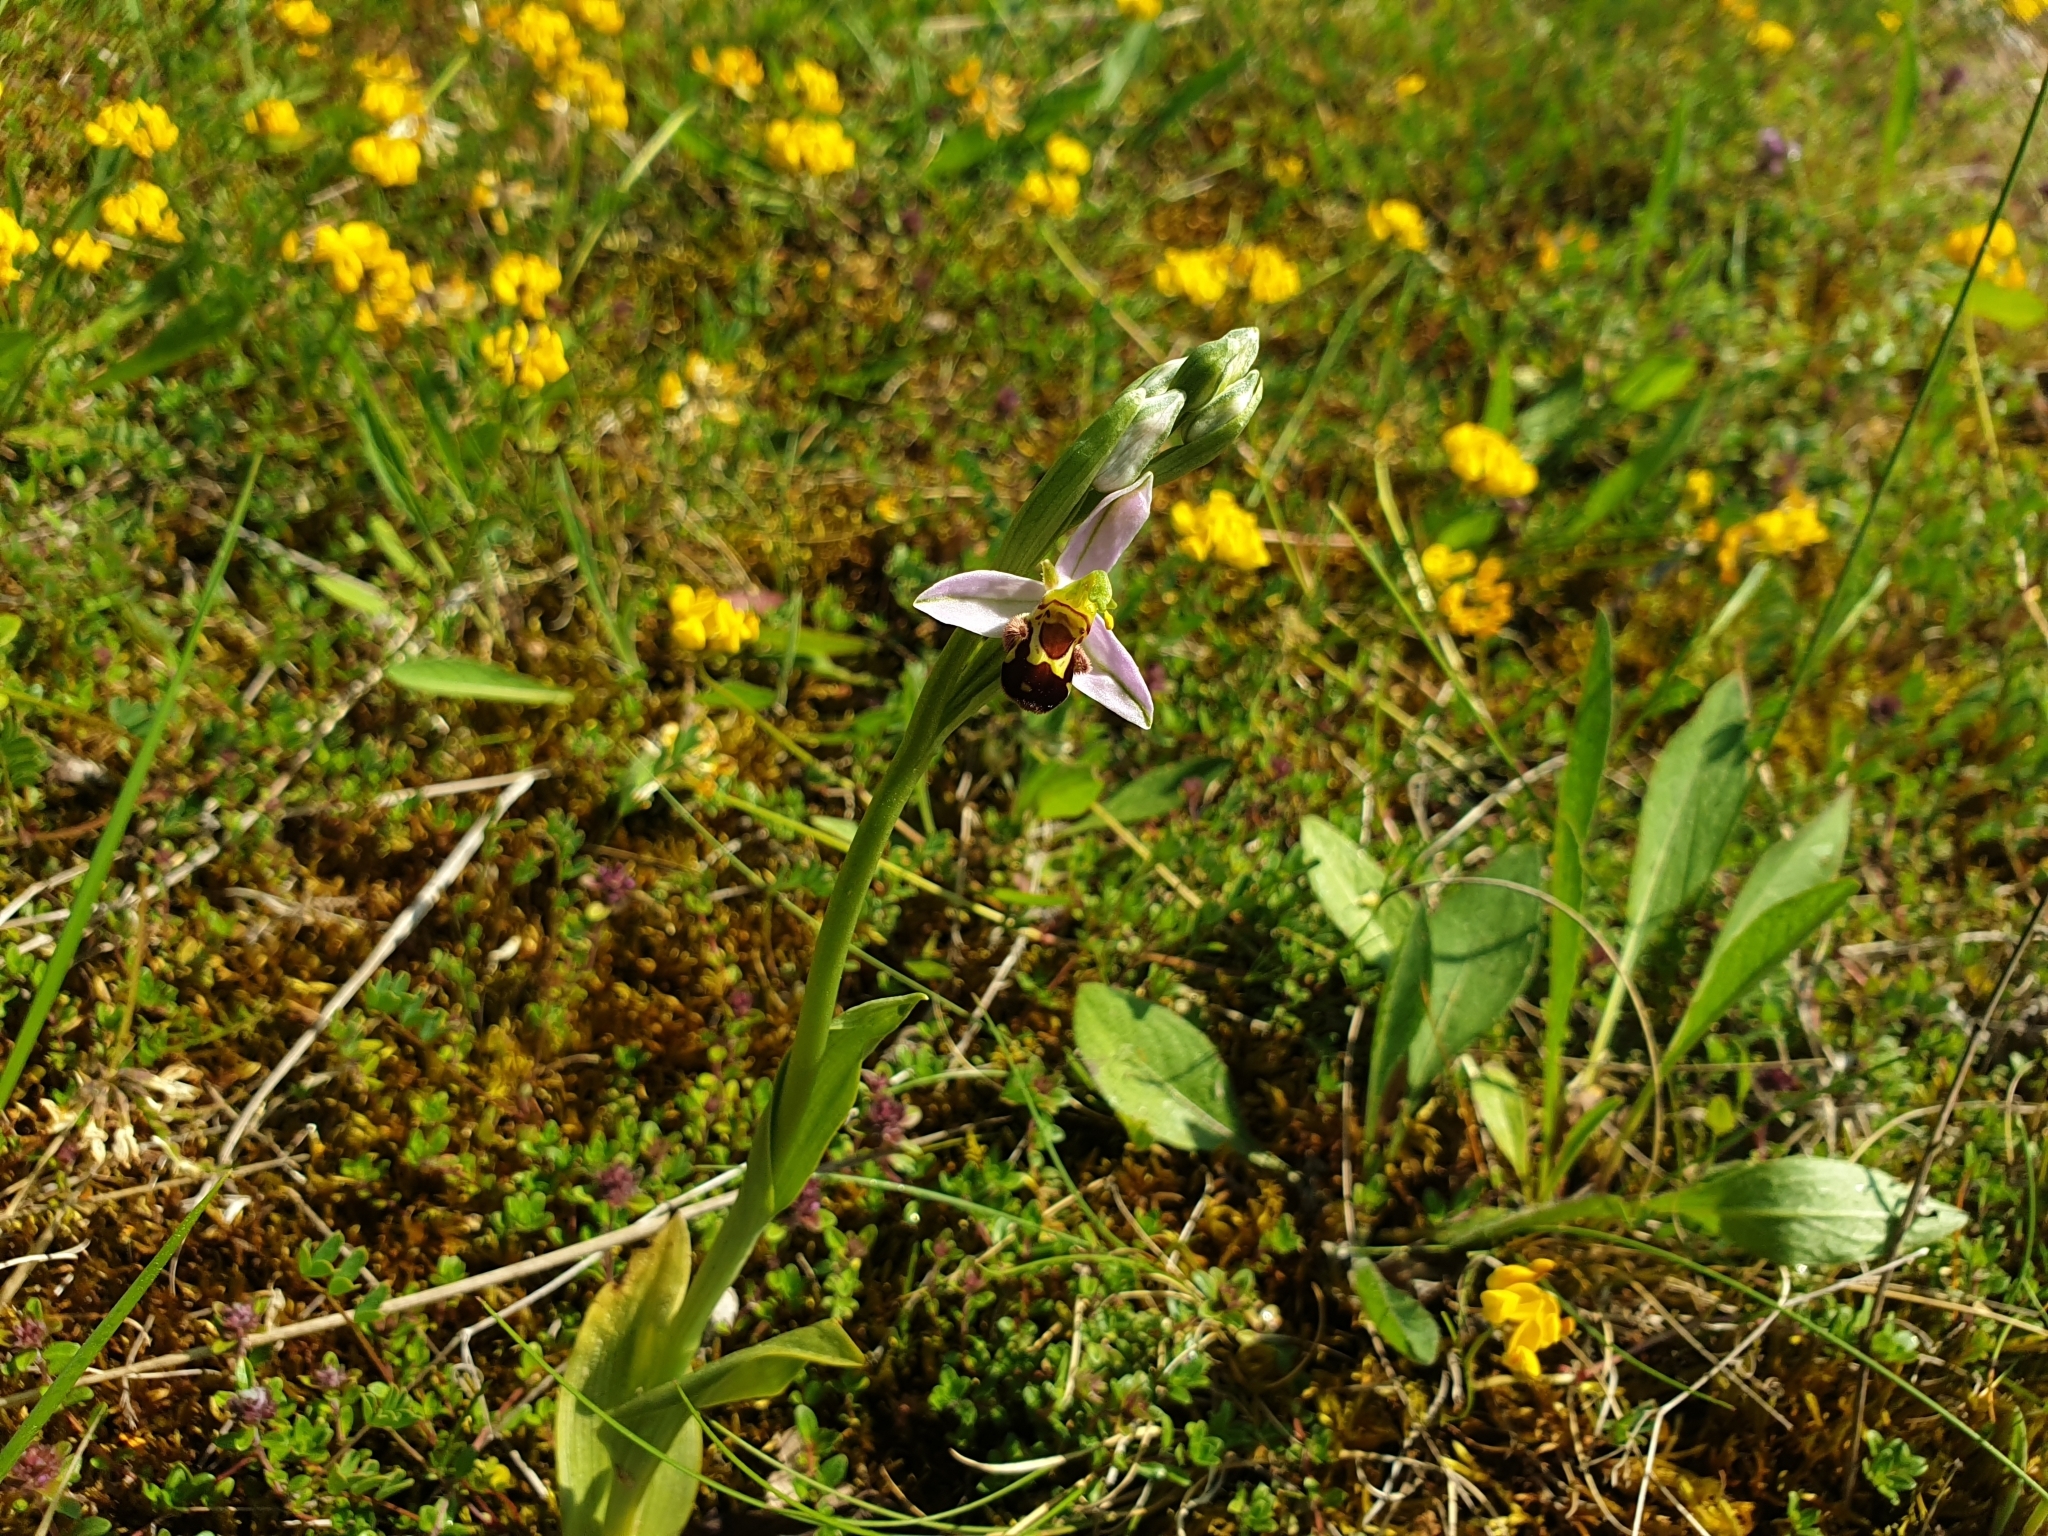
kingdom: Plantae
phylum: Tracheophyta
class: Liliopsida
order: Asparagales
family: Orchidaceae
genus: Ophrys
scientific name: Ophrys apifera
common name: Bee orchid
